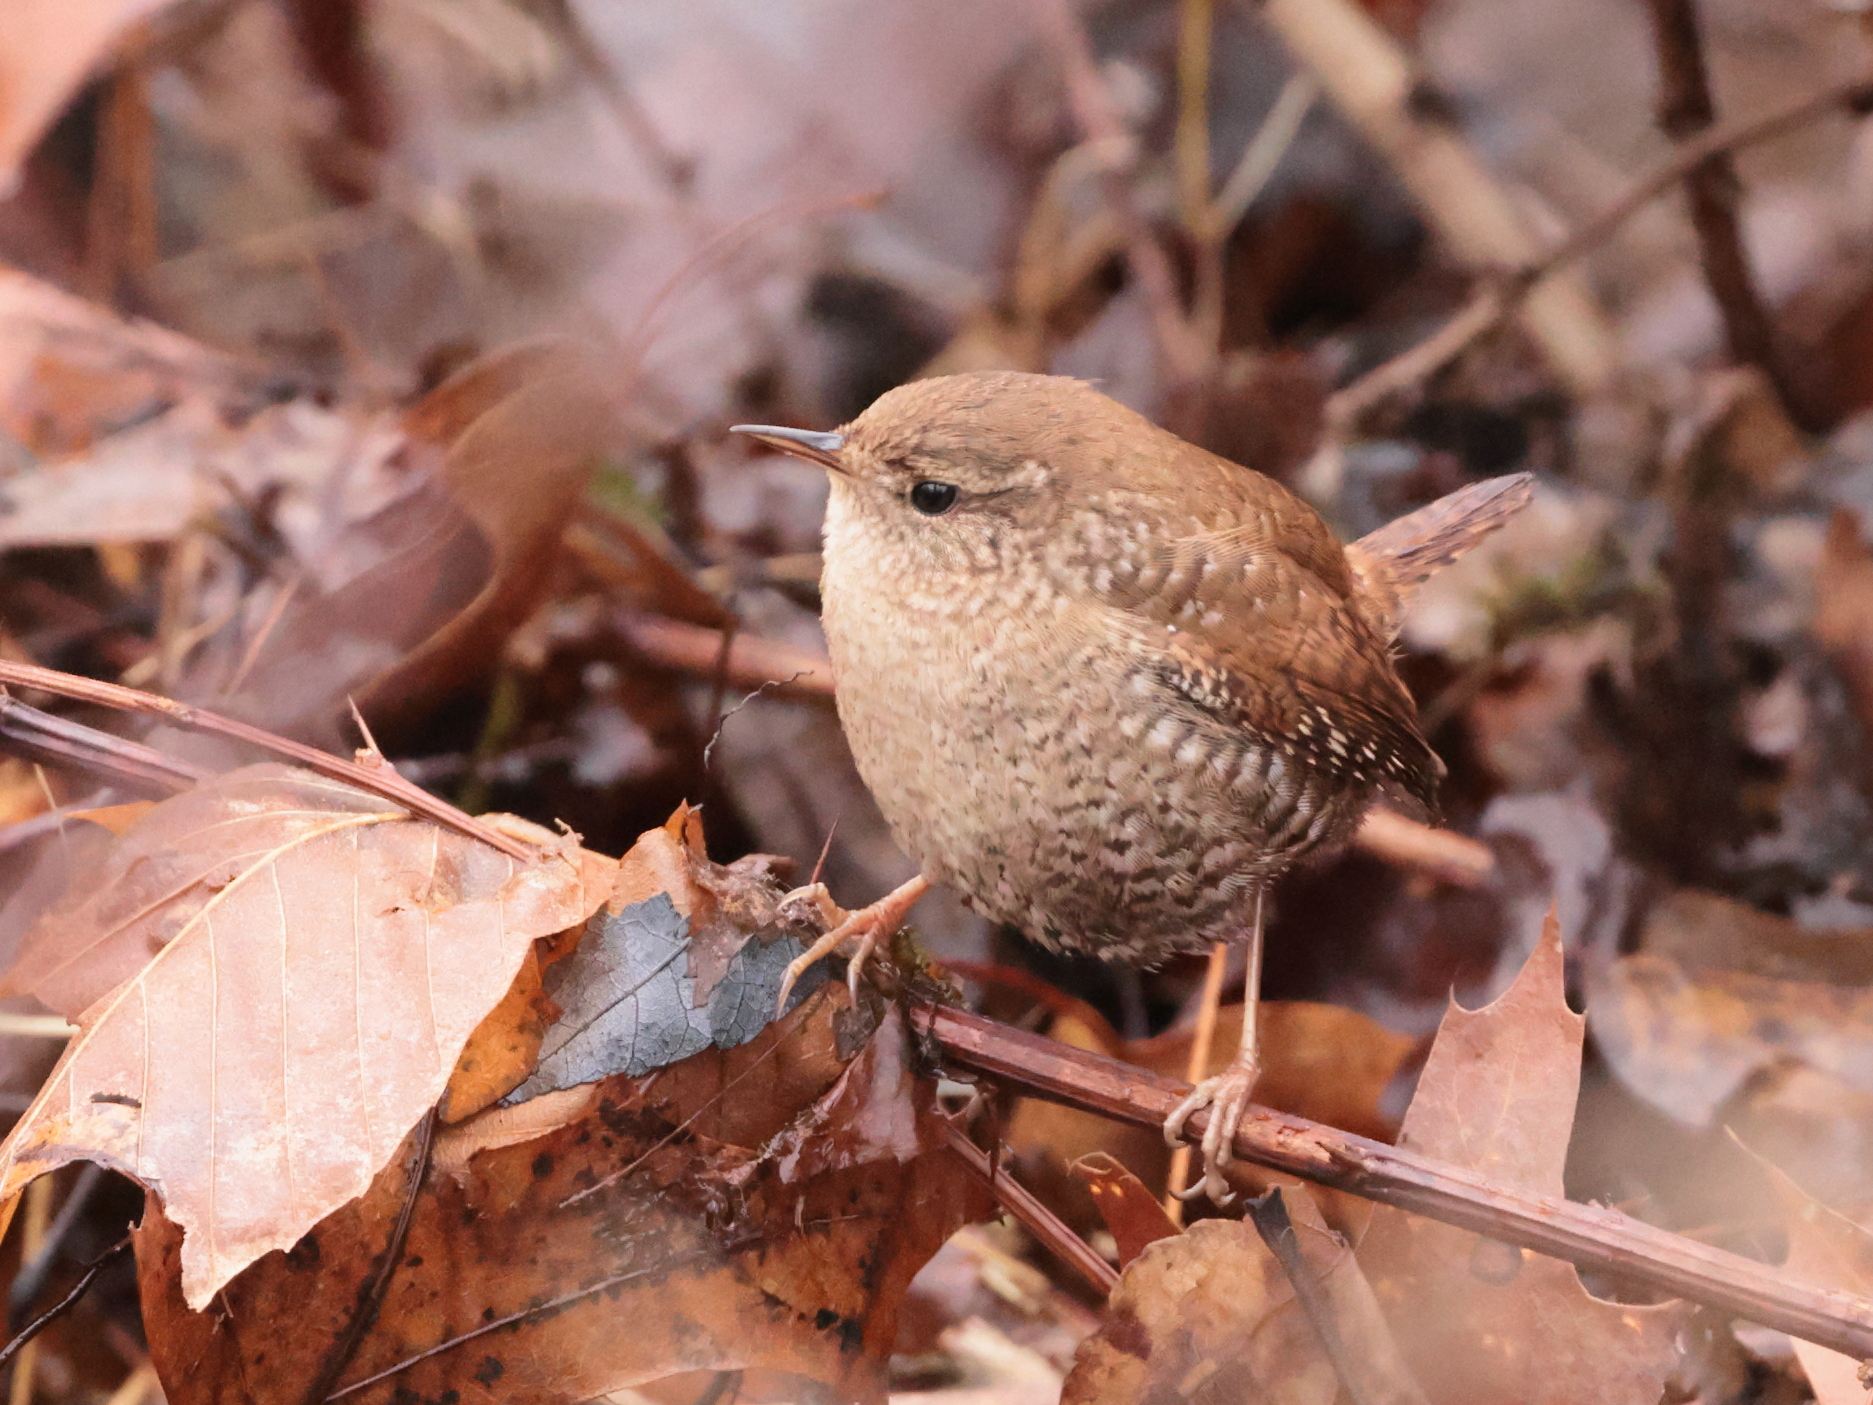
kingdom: Animalia
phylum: Chordata
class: Aves
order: Passeriformes
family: Troglodytidae
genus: Troglodytes
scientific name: Troglodytes hiemalis
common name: Winter wren
